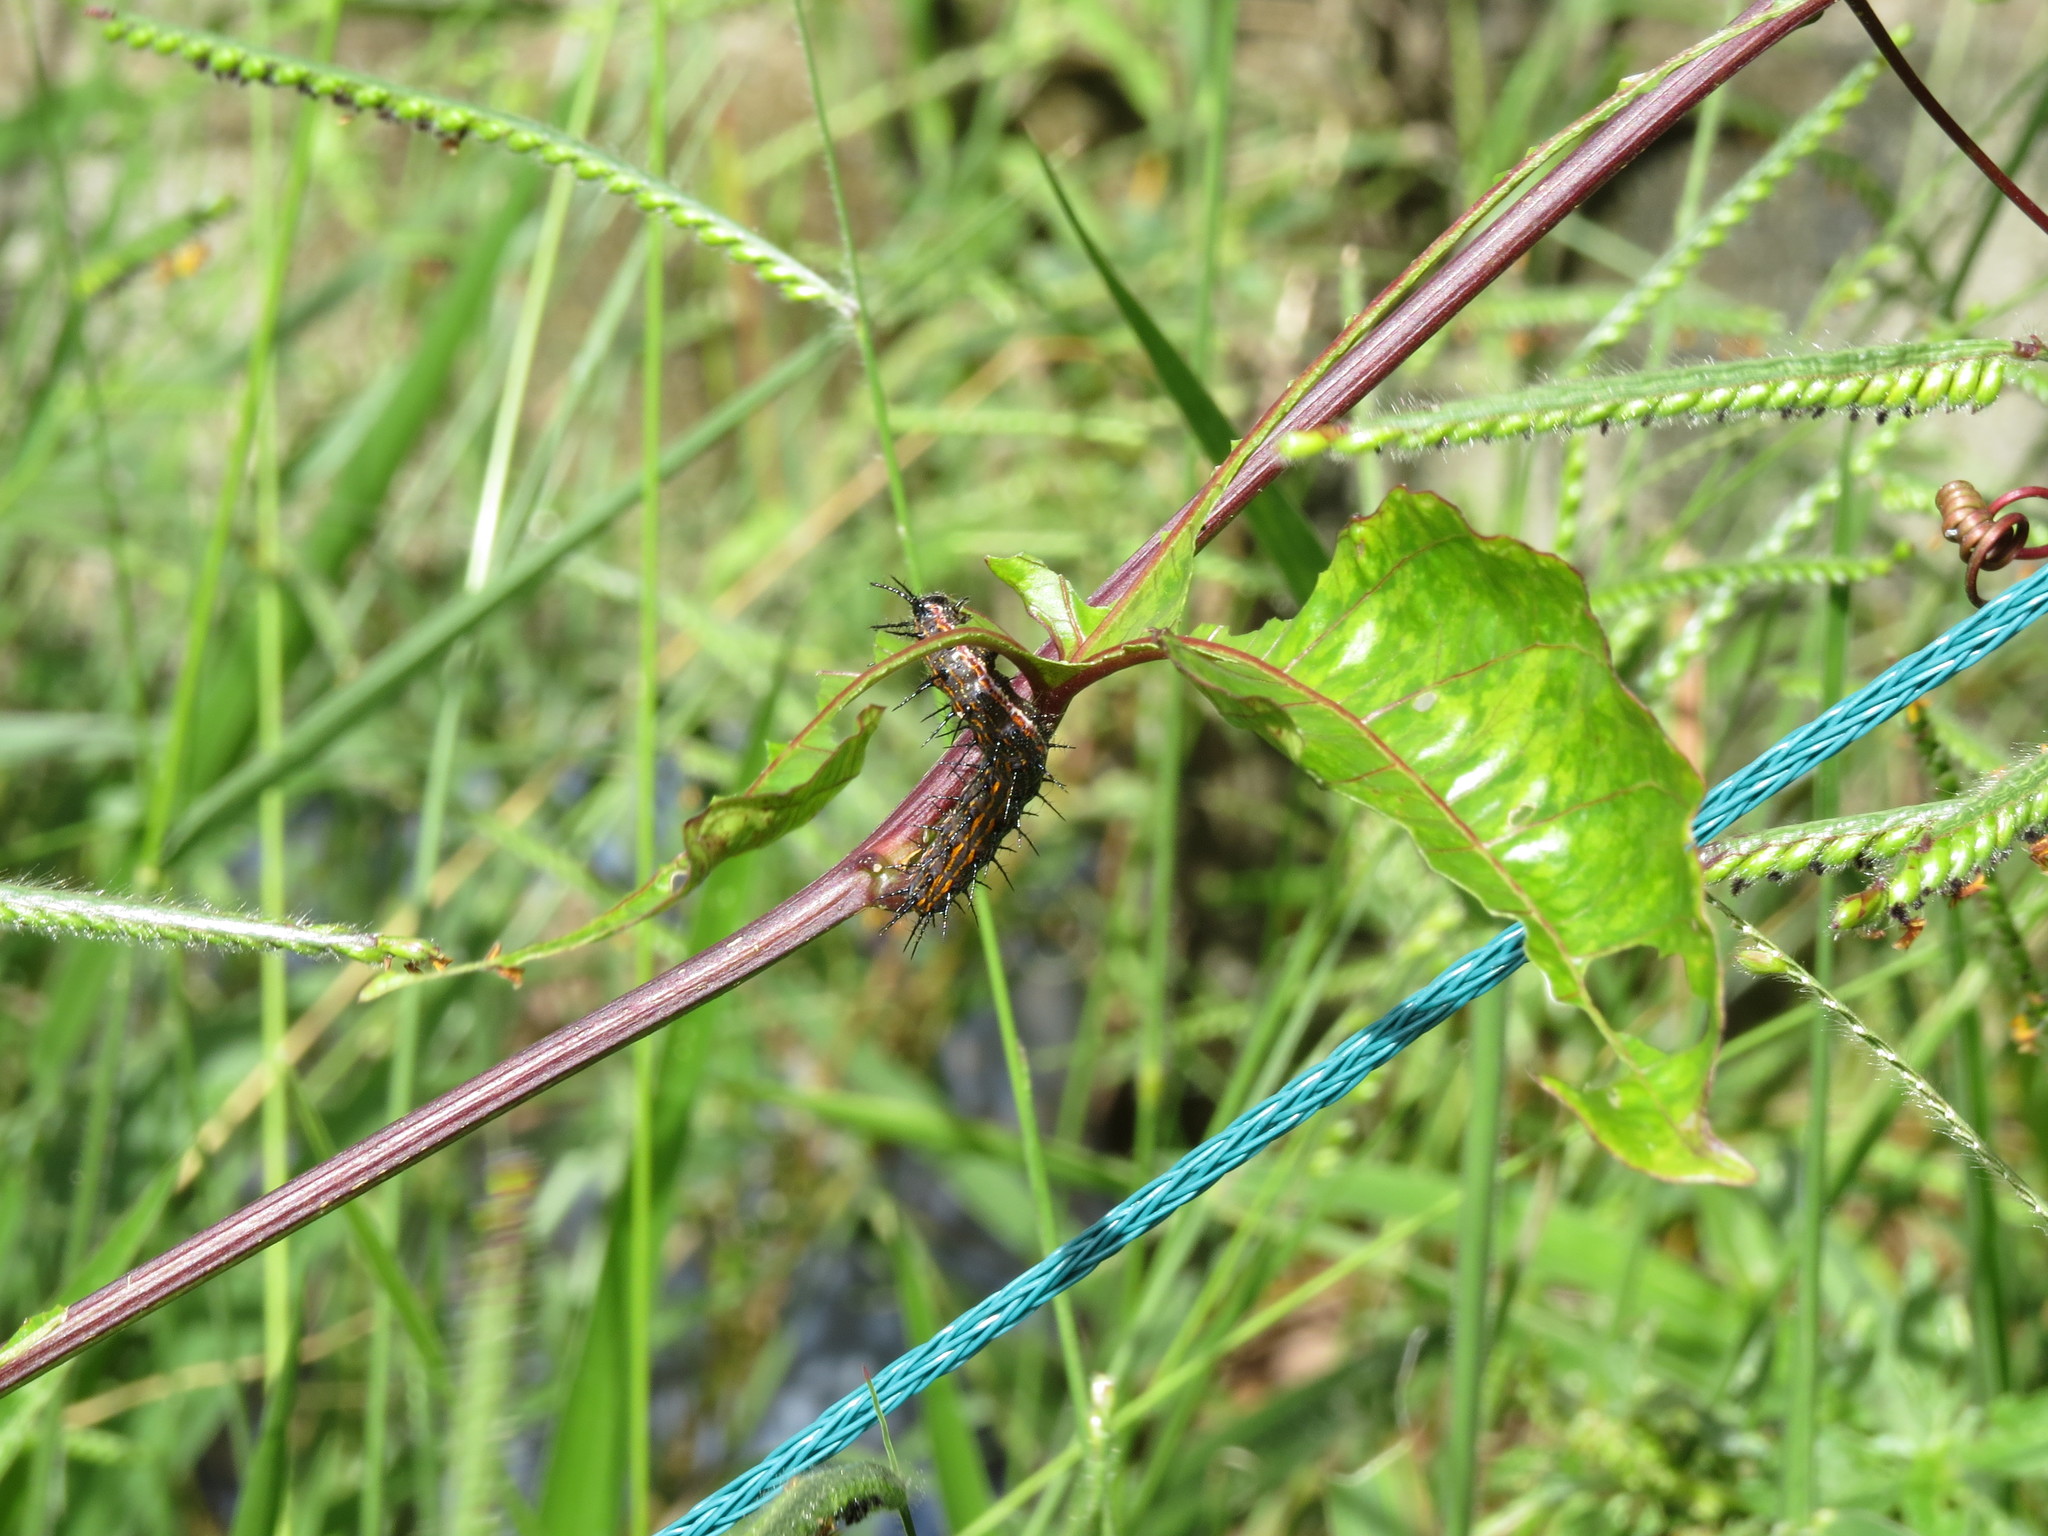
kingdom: Animalia
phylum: Arthropoda
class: Insecta
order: Lepidoptera
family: Nymphalidae
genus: Dione
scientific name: Dione vanillae
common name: Gulf fritillary
